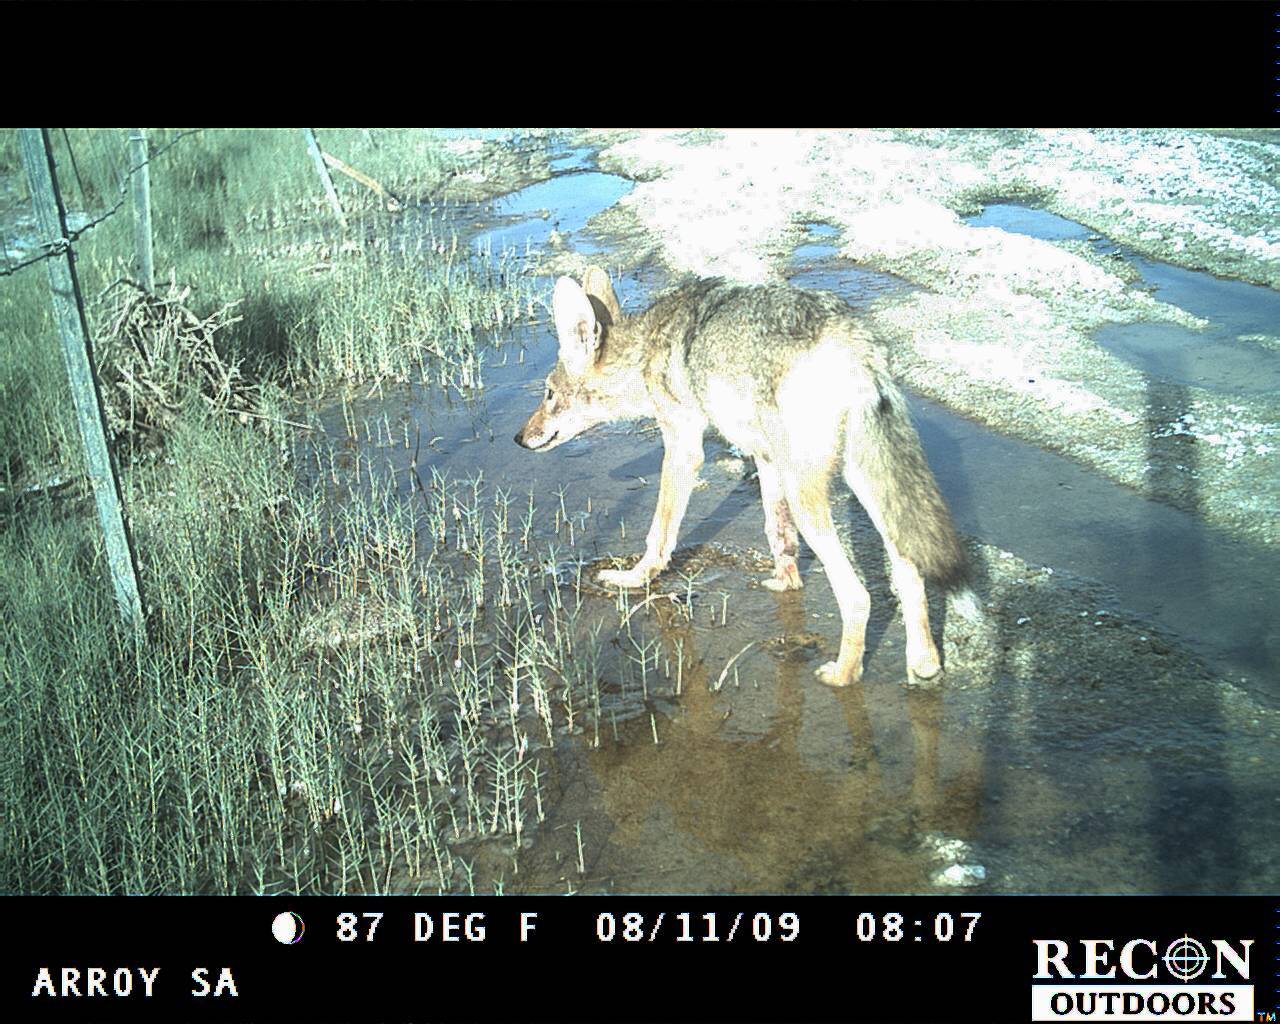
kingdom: Animalia
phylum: Chordata
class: Mammalia
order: Carnivora
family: Canidae
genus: Canis
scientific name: Canis latrans
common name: Coyote
